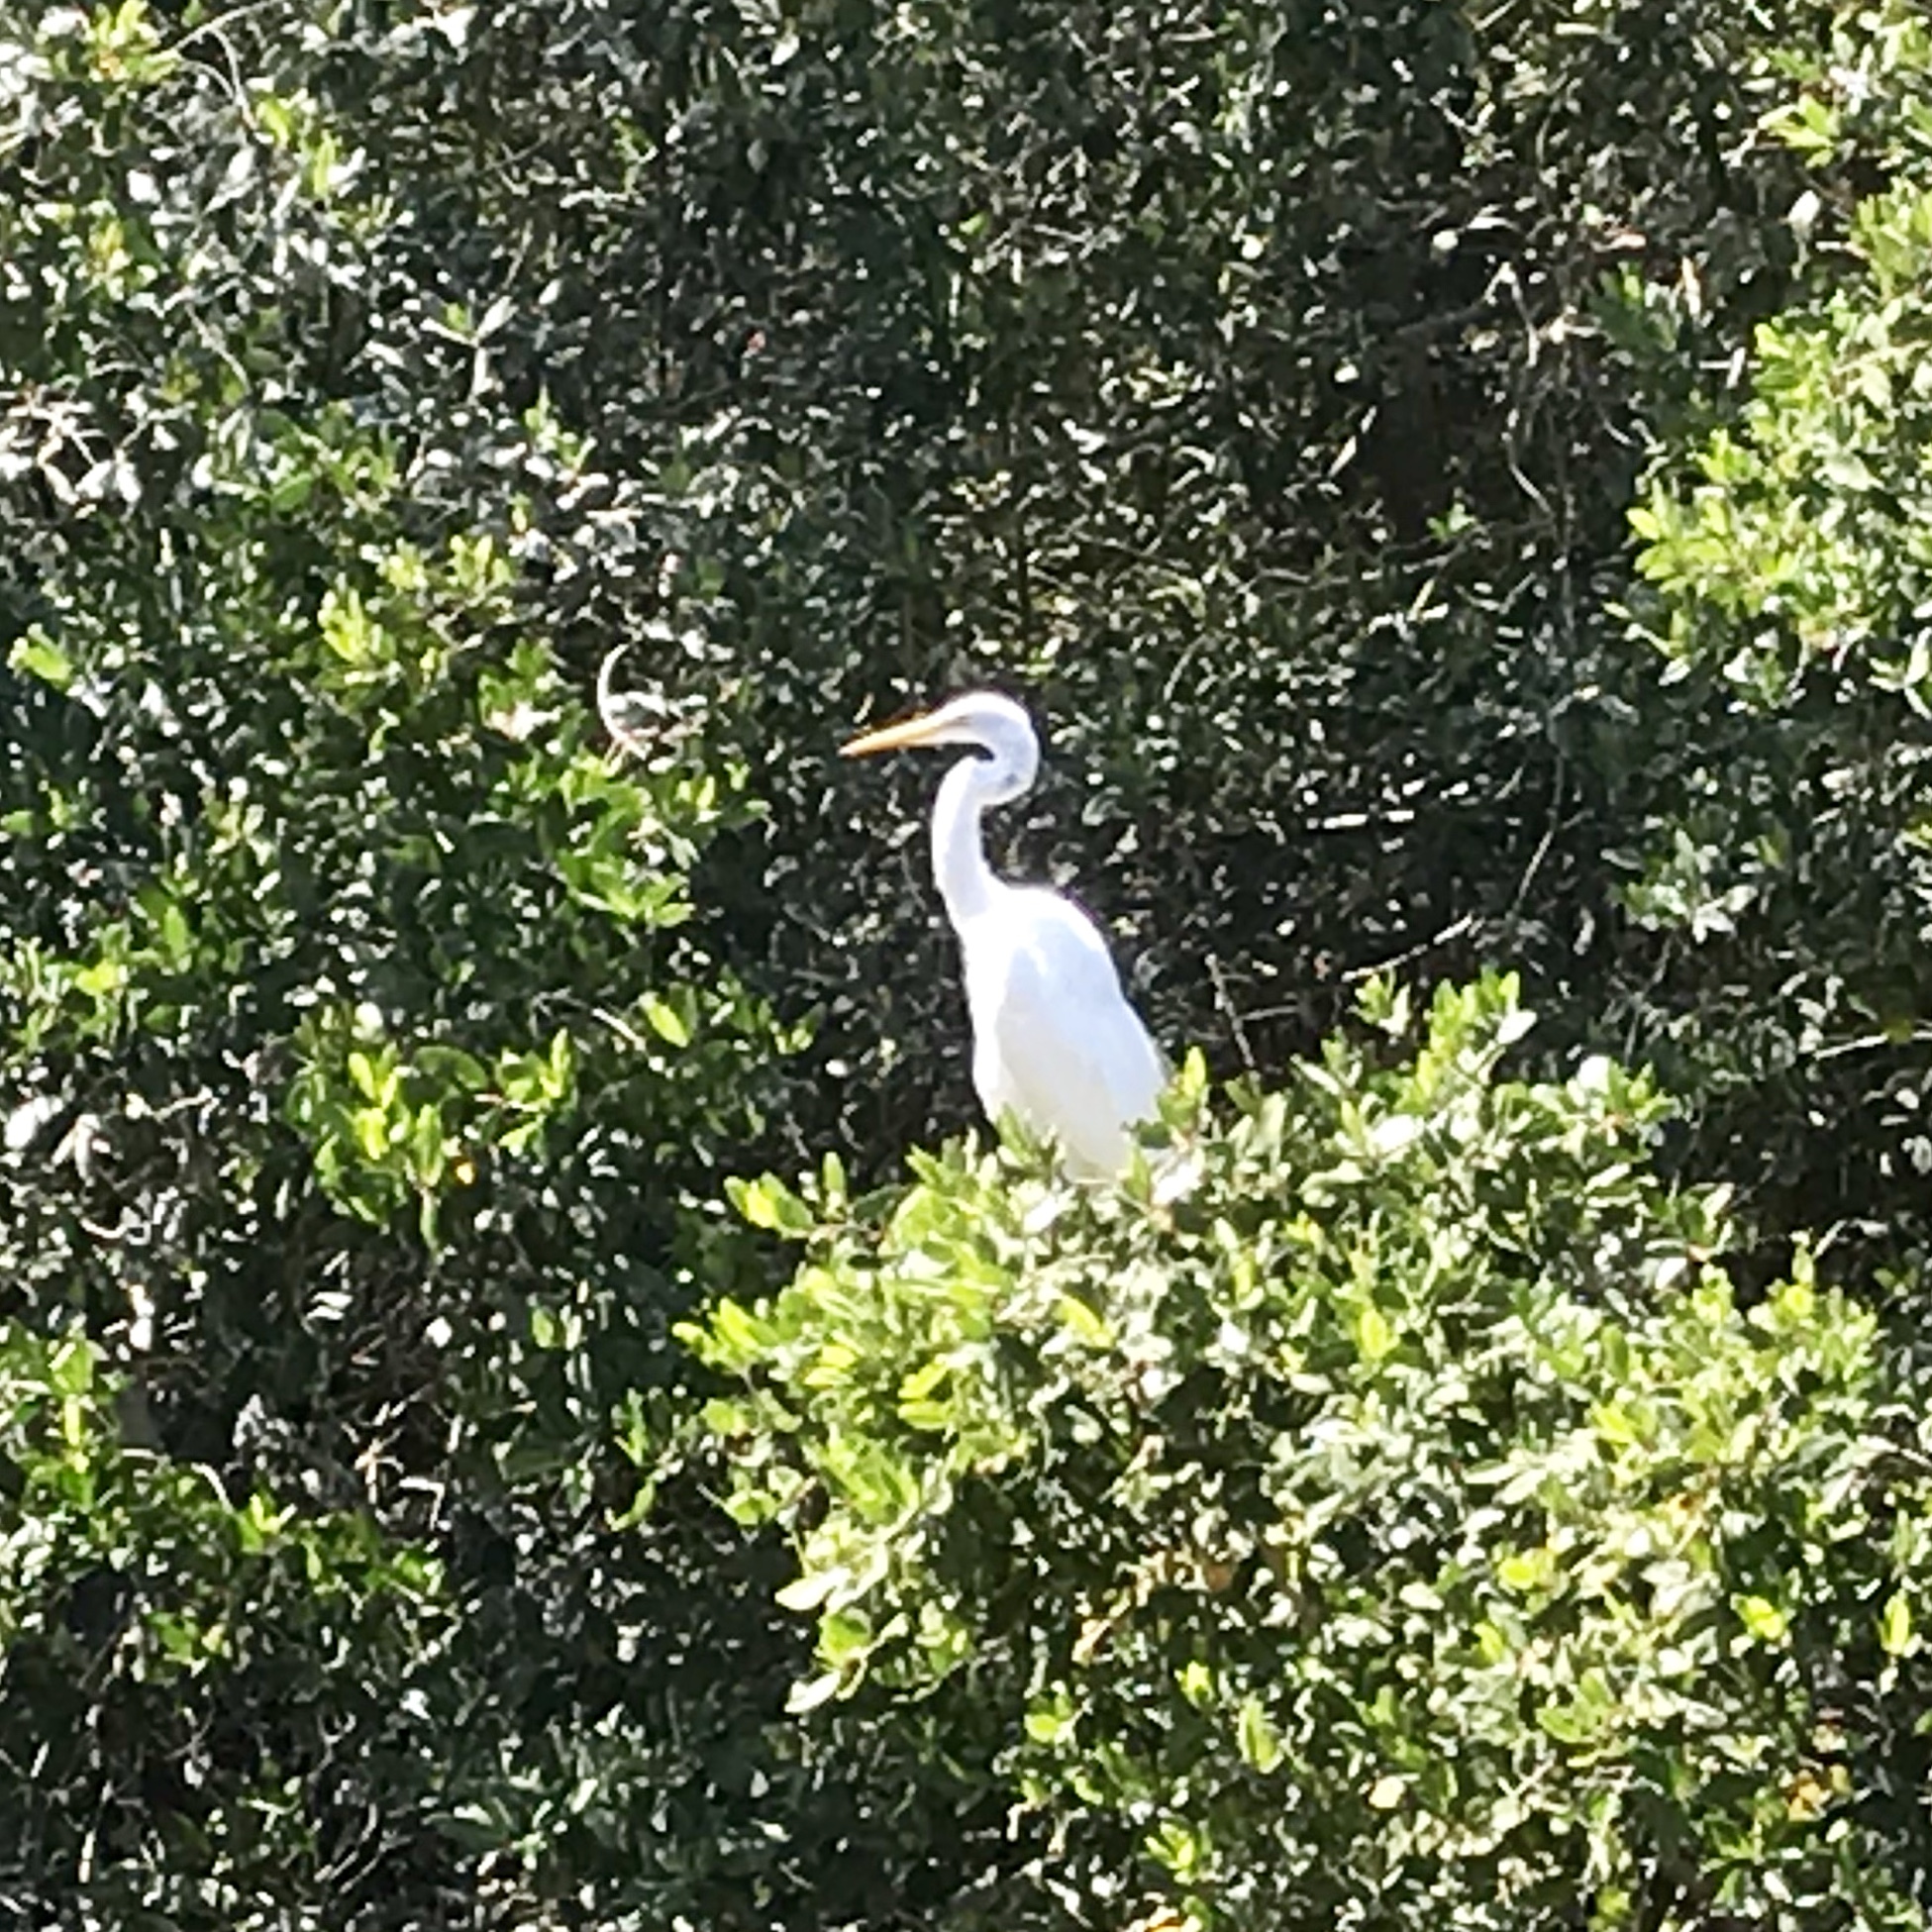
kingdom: Animalia
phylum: Chordata
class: Aves
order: Pelecaniformes
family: Ardeidae
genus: Ardea
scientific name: Ardea alba
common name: Great egret
